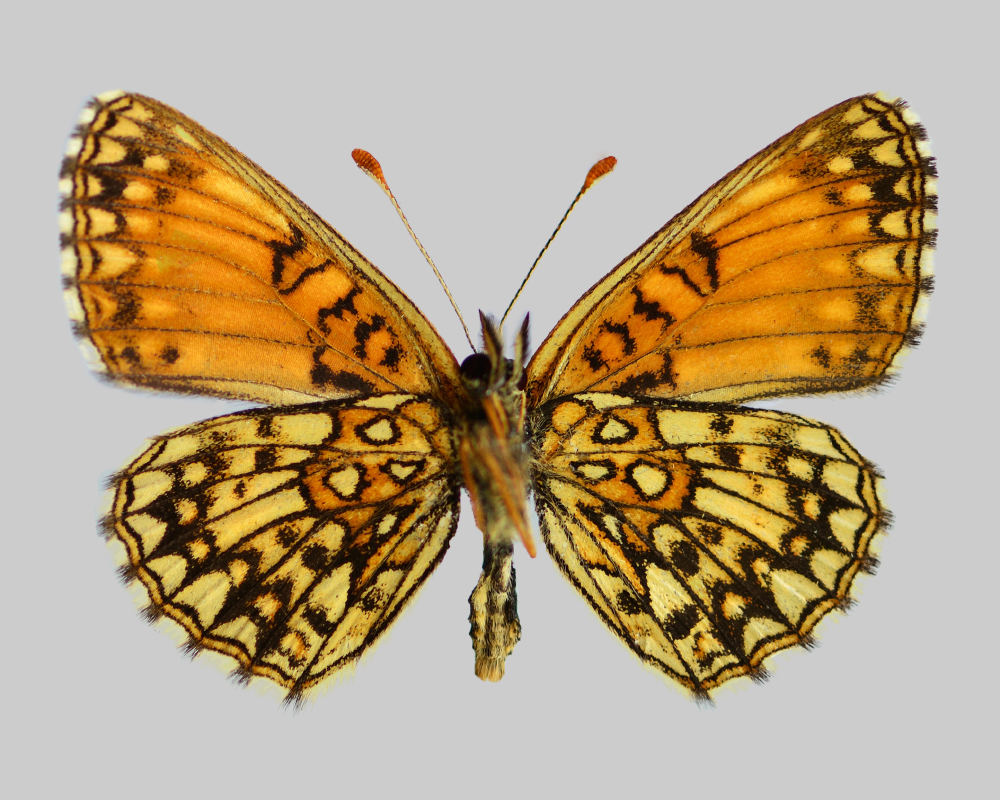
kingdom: Animalia
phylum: Arthropoda
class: Insecta
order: Lepidoptera
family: Nymphalidae
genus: Melitaea
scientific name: Melitaea diamina
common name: False heath fritillary
